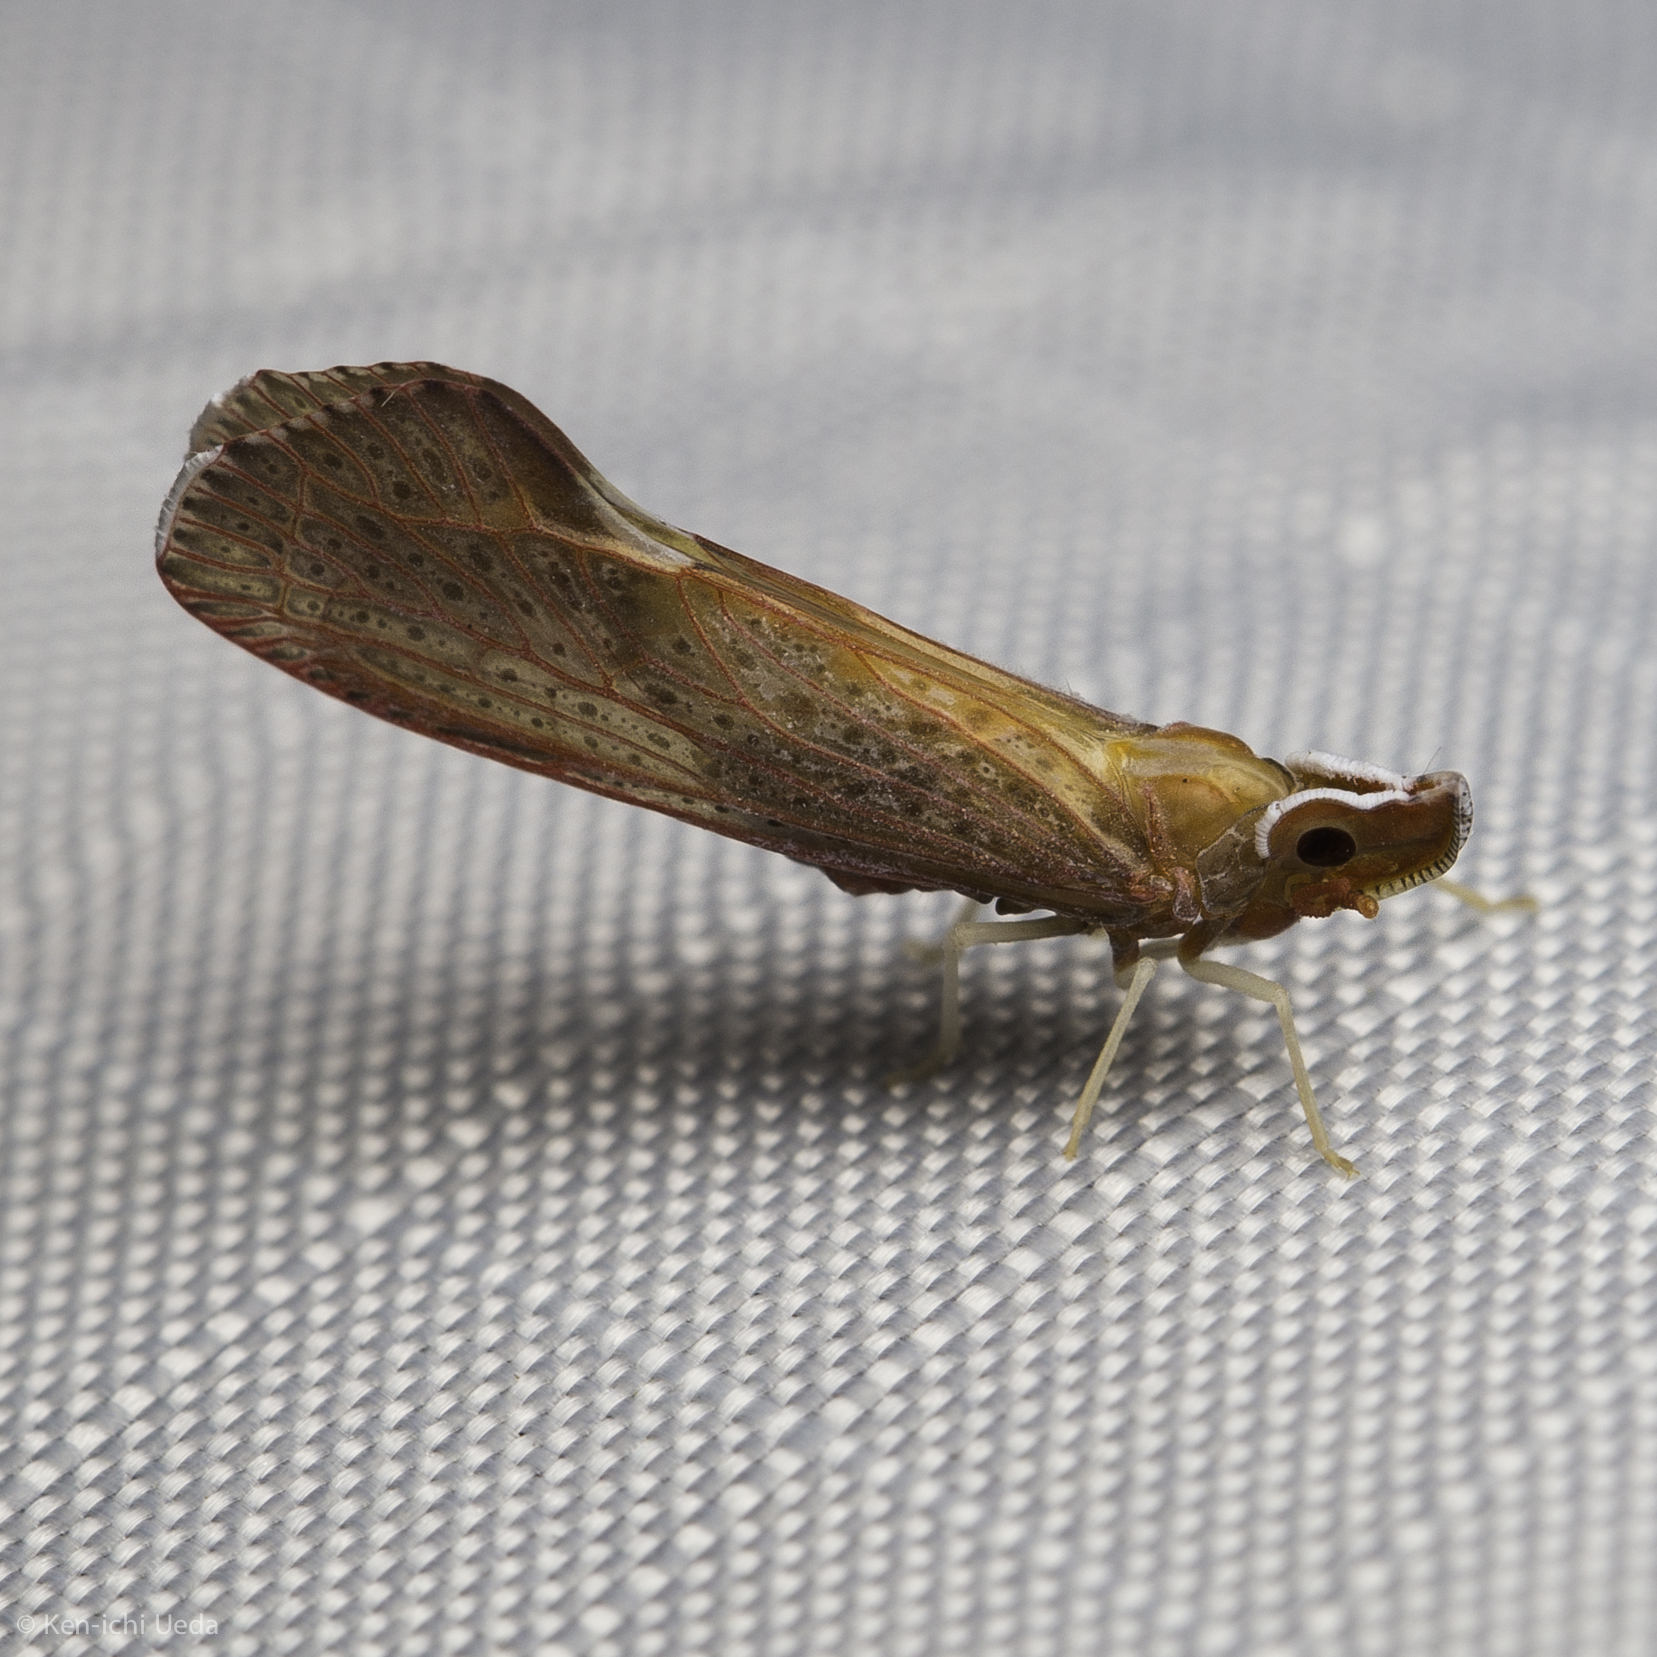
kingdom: Animalia
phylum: Arthropoda
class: Insecta
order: Hemiptera
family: Derbidae
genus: Apache
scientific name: Apache californicum
